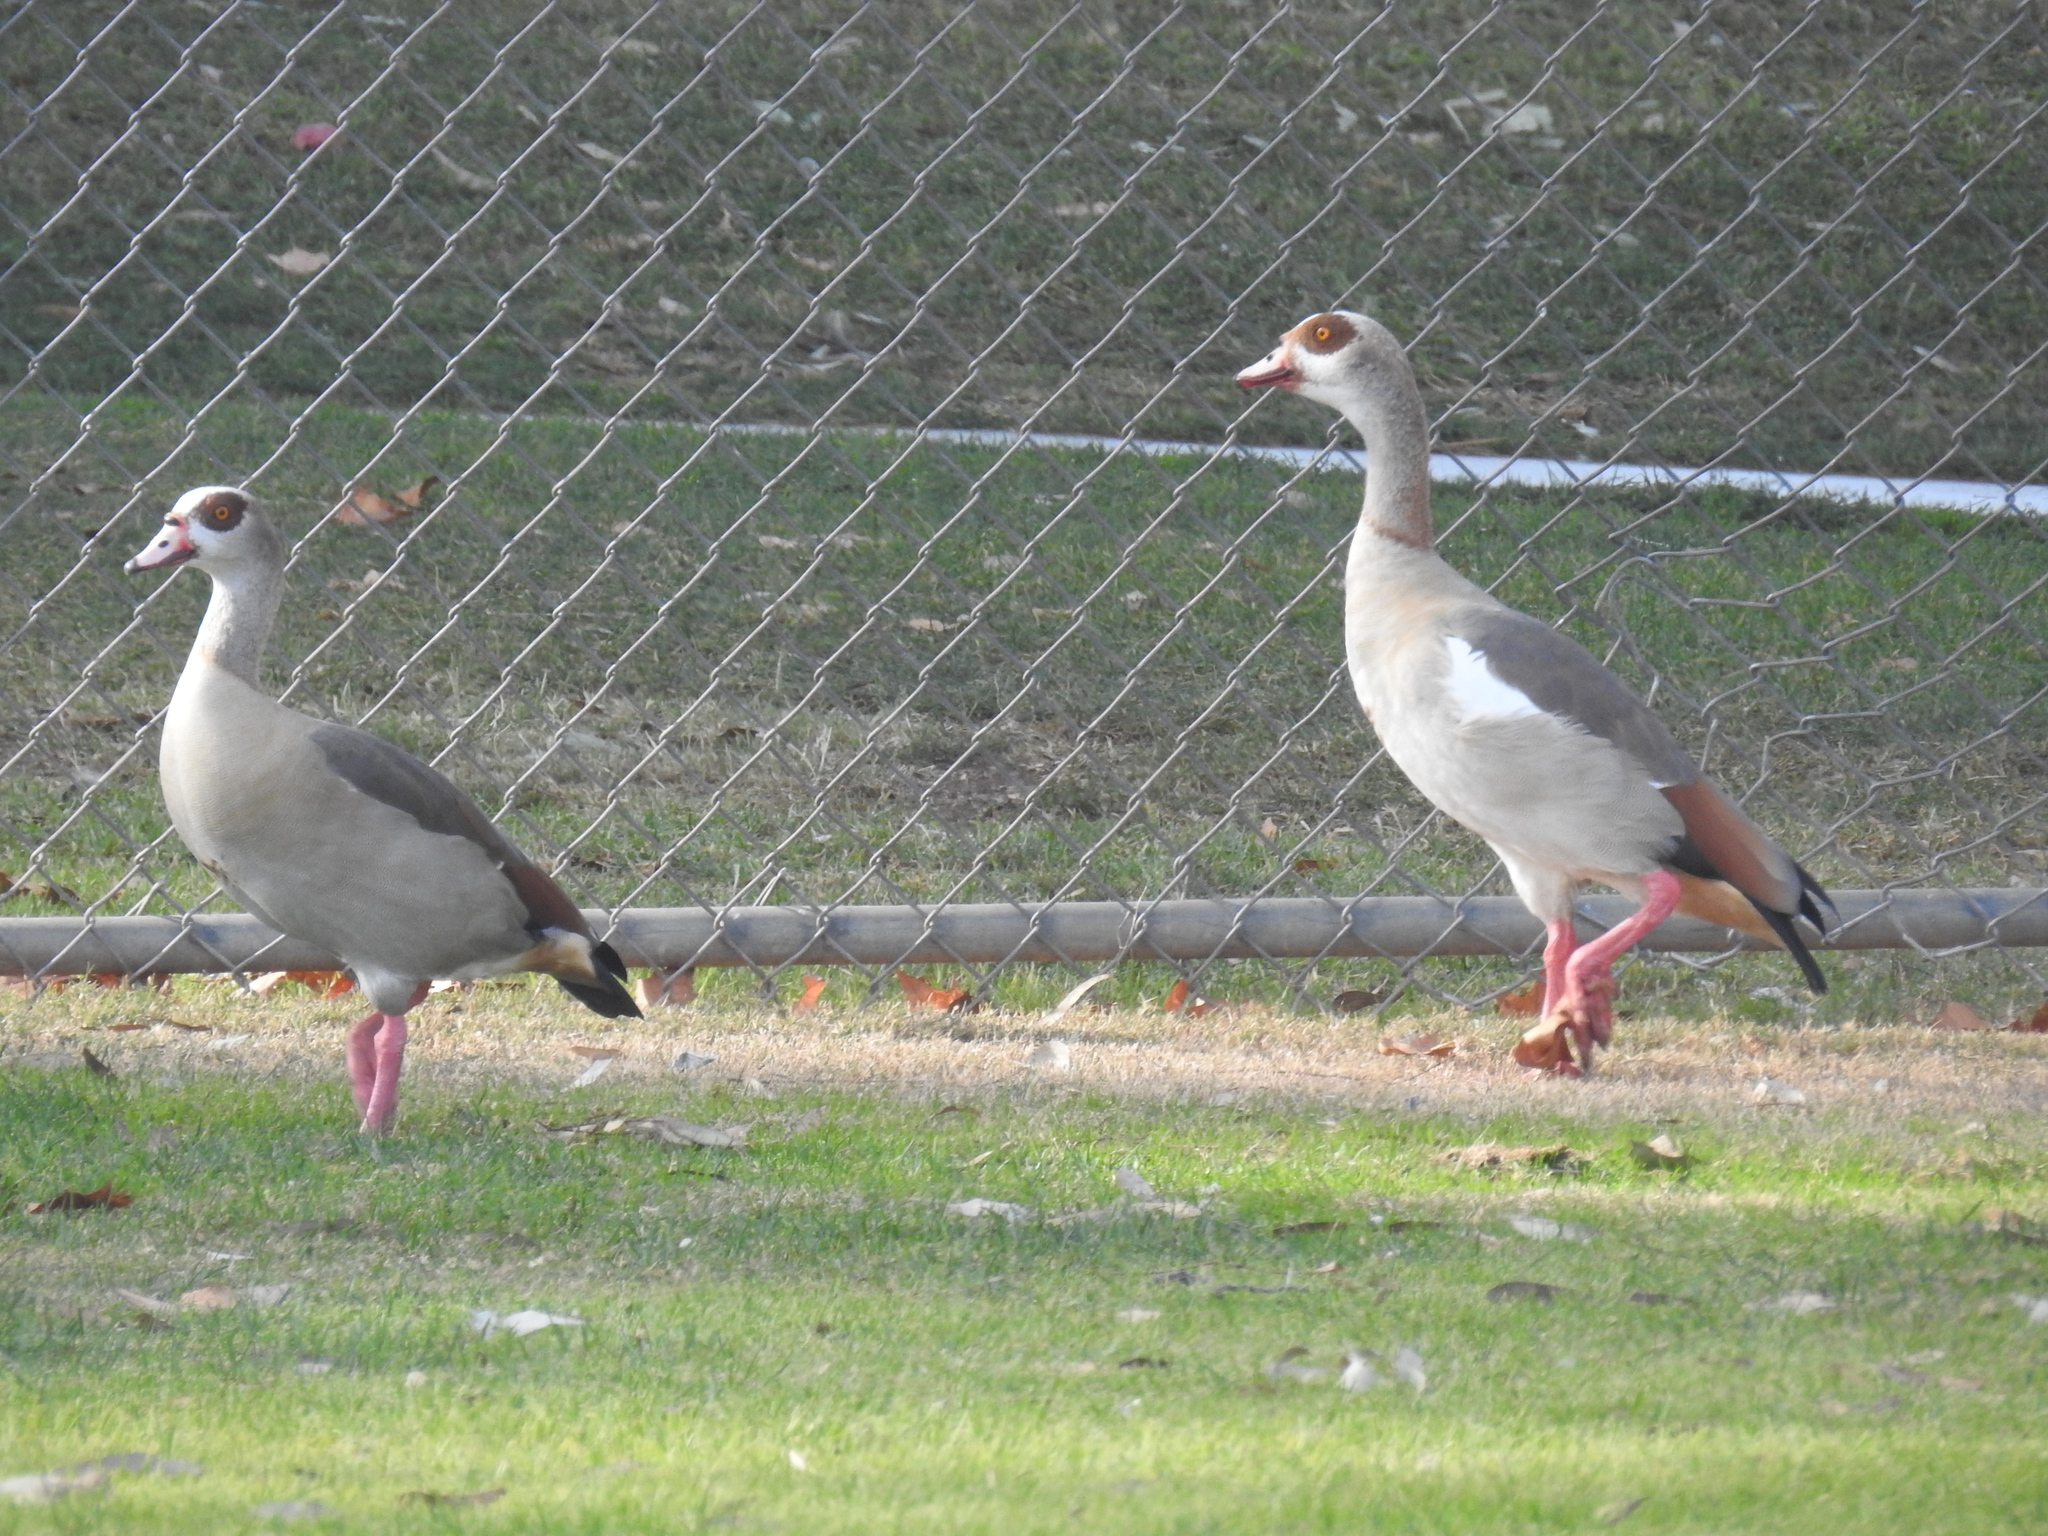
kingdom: Animalia
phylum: Chordata
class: Aves
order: Anseriformes
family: Anatidae
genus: Alopochen
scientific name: Alopochen aegyptiaca
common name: Egyptian goose
